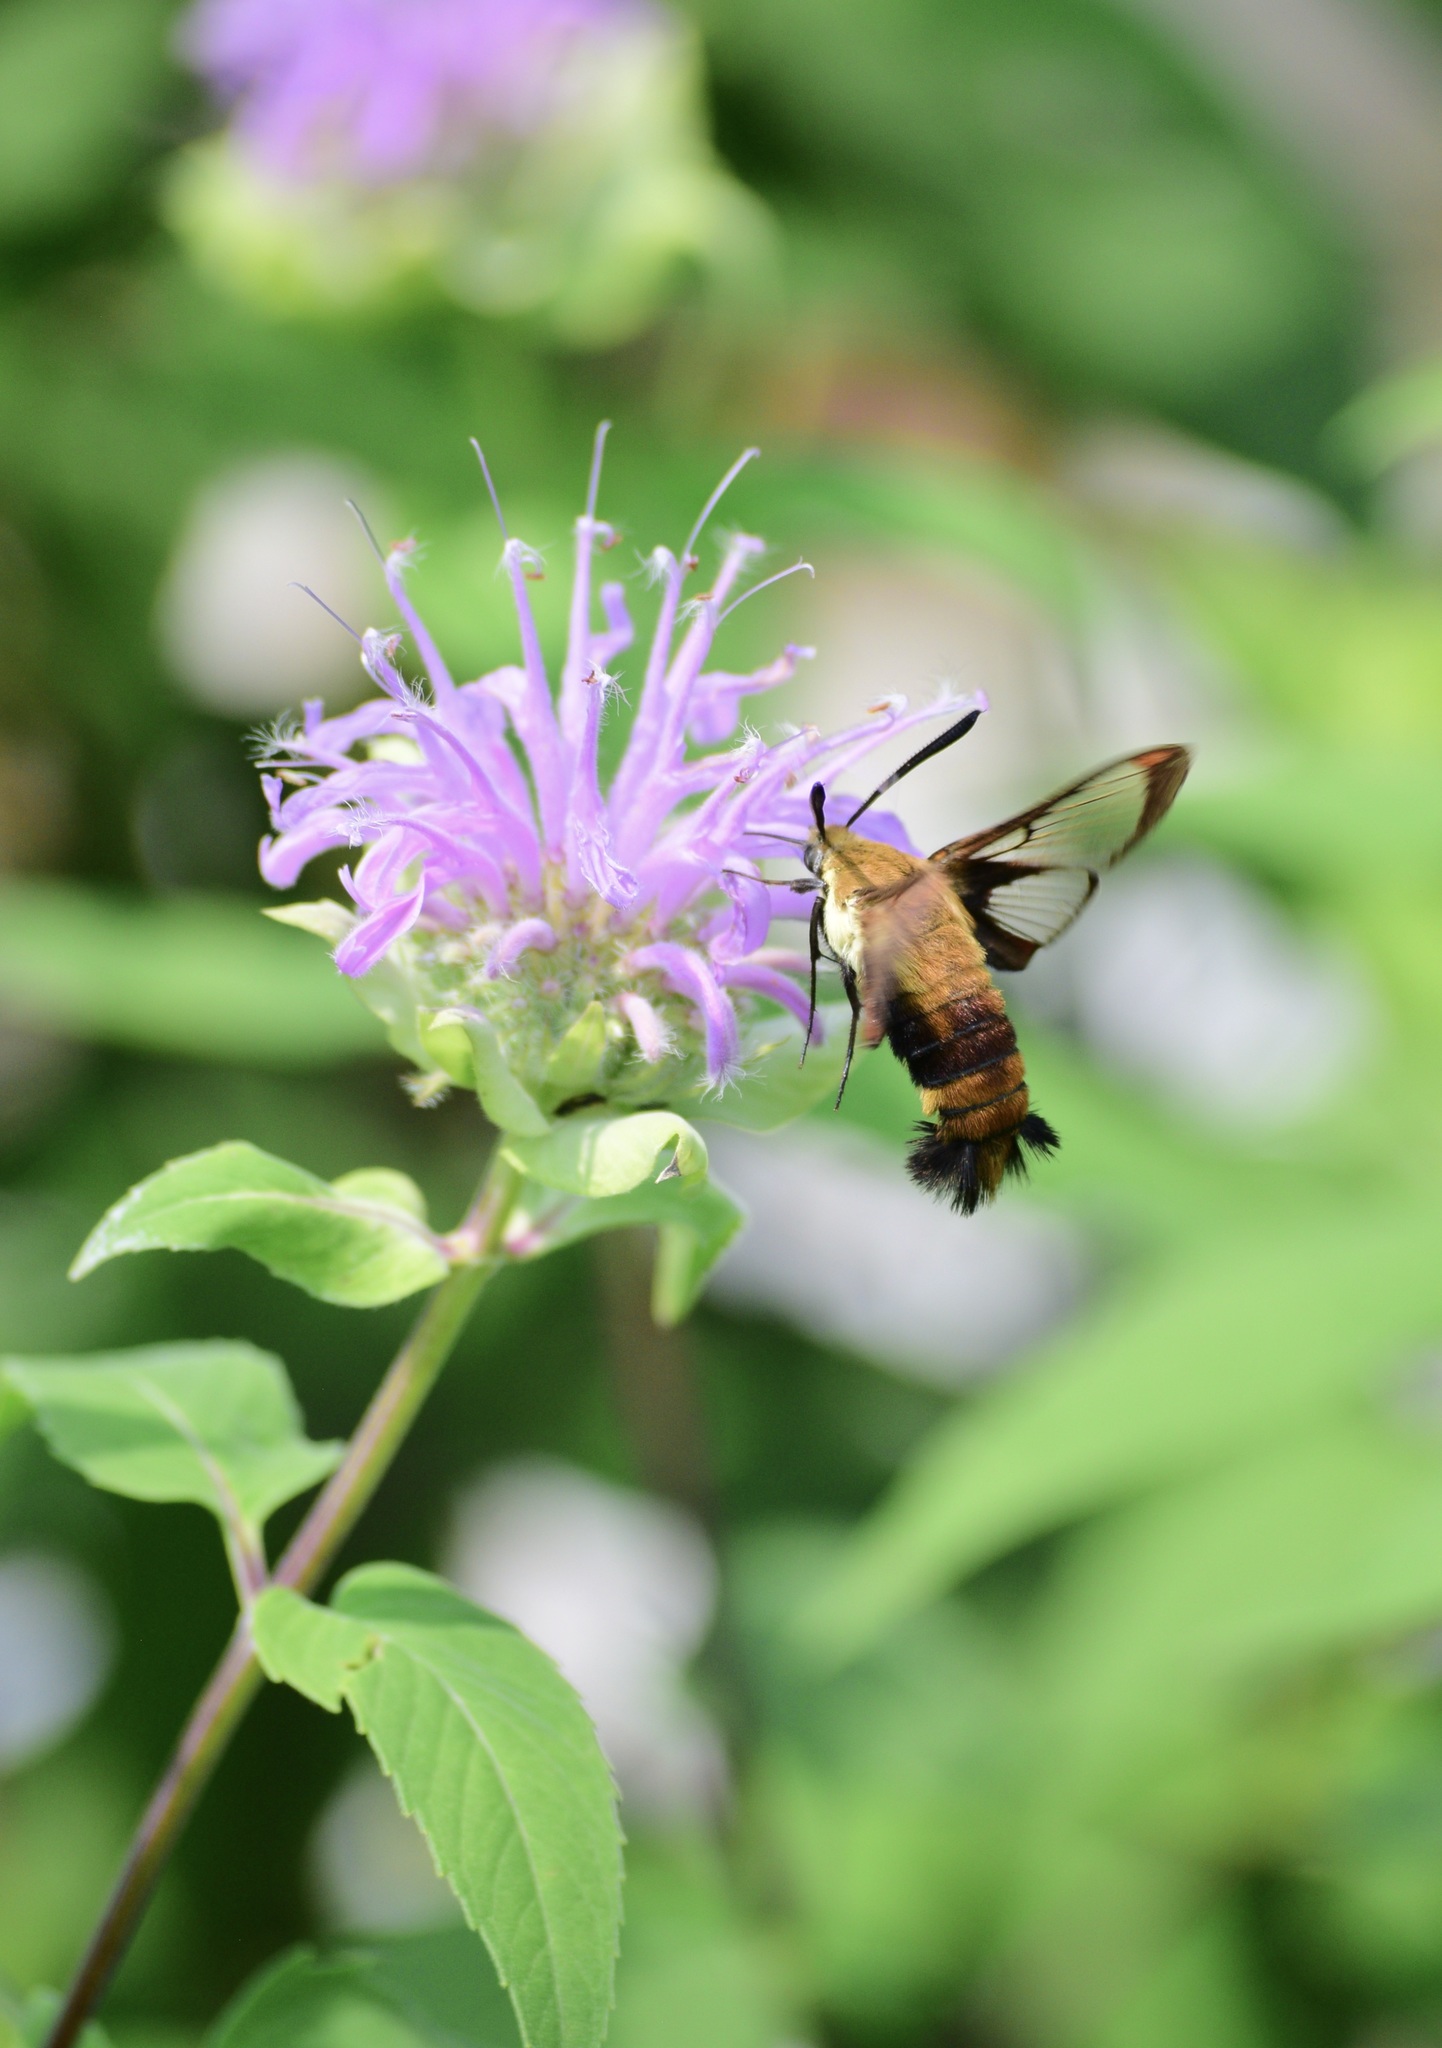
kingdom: Animalia
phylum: Arthropoda
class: Insecta
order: Lepidoptera
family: Sphingidae
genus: Hemaris
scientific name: Hemaris diffinis
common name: Bumblebee moth
